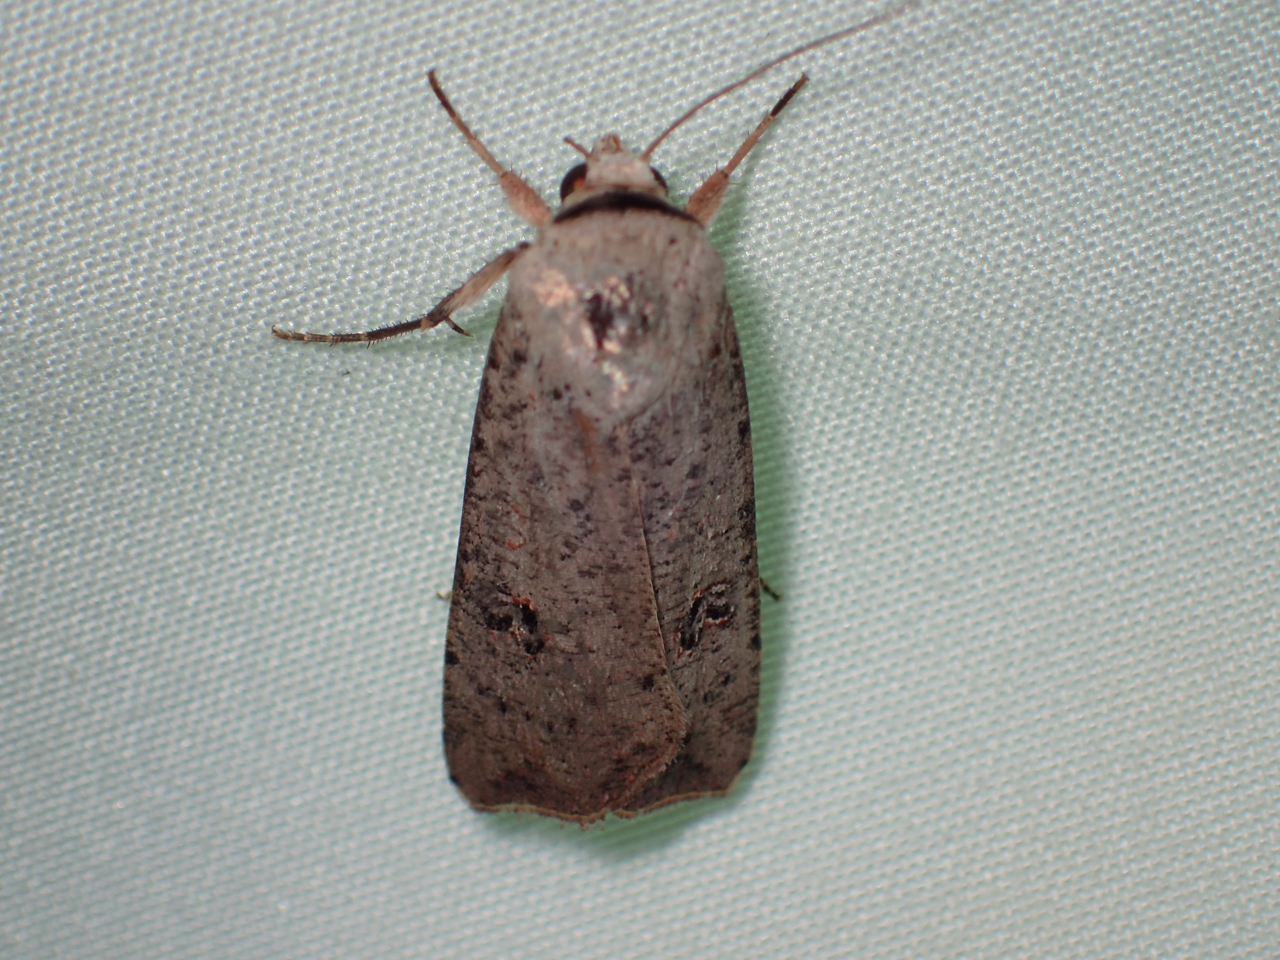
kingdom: Animalia
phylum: Arthropoda
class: Insecta
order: Lepidoptera
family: Noctuidae
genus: Anicla
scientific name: Anicla infecta
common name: Green cutworm
